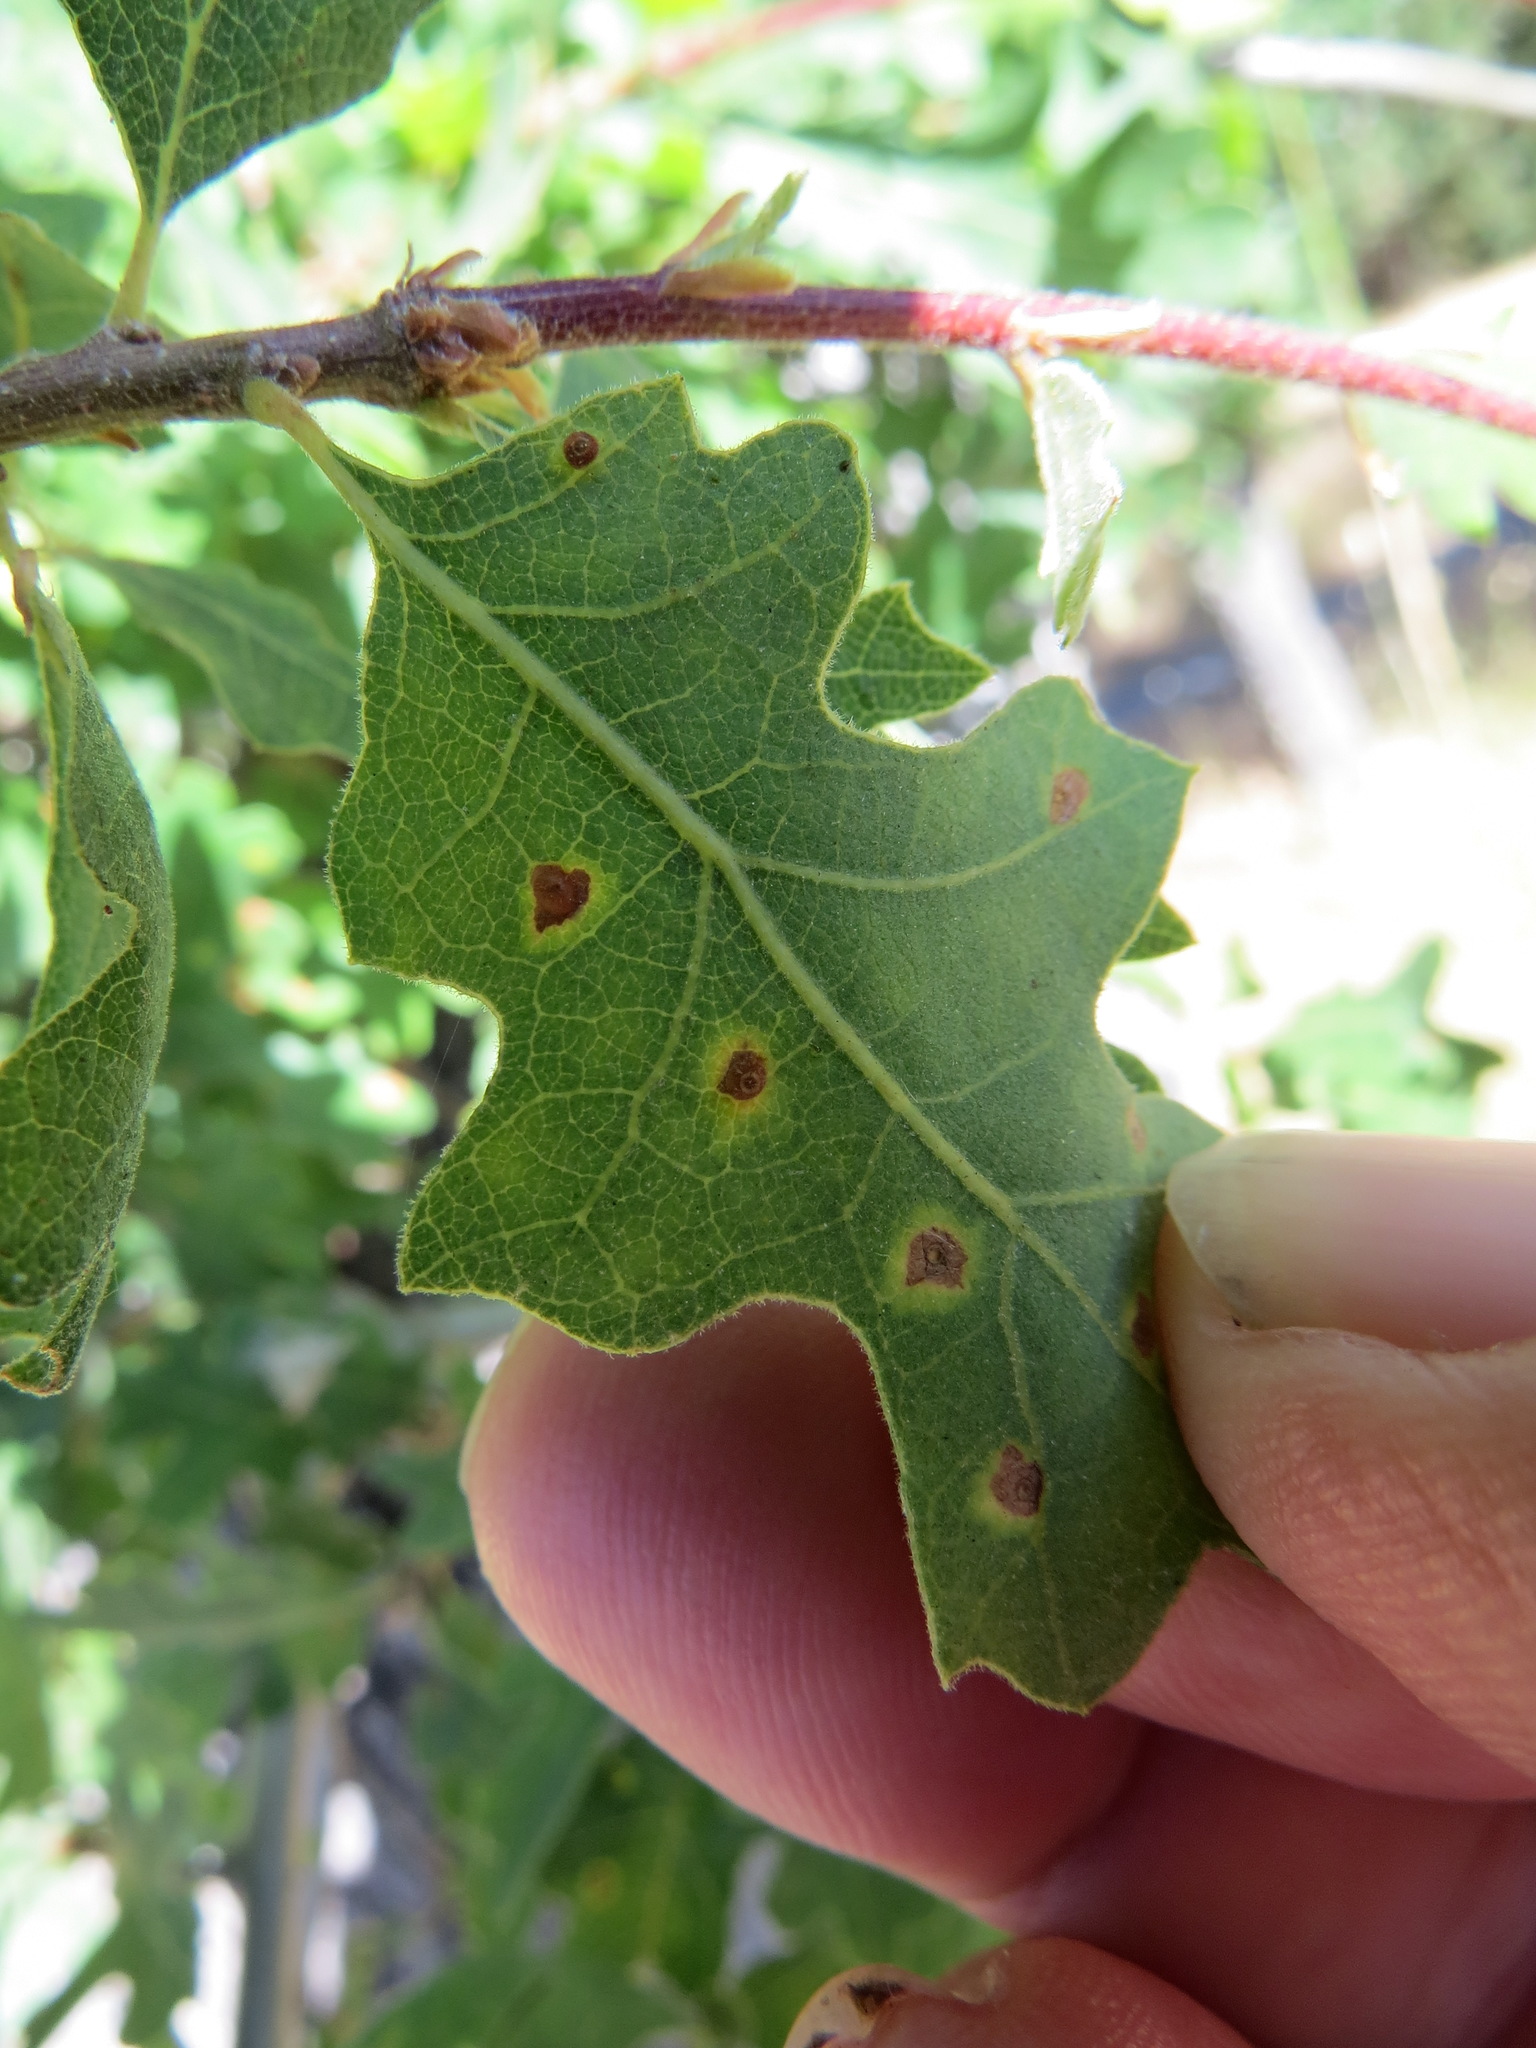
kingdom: Animalia
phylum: Arthropoda
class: Insecta
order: Hymenoptera
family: Cynipidae
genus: Neuroterus
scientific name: Neuroterus saltarius
